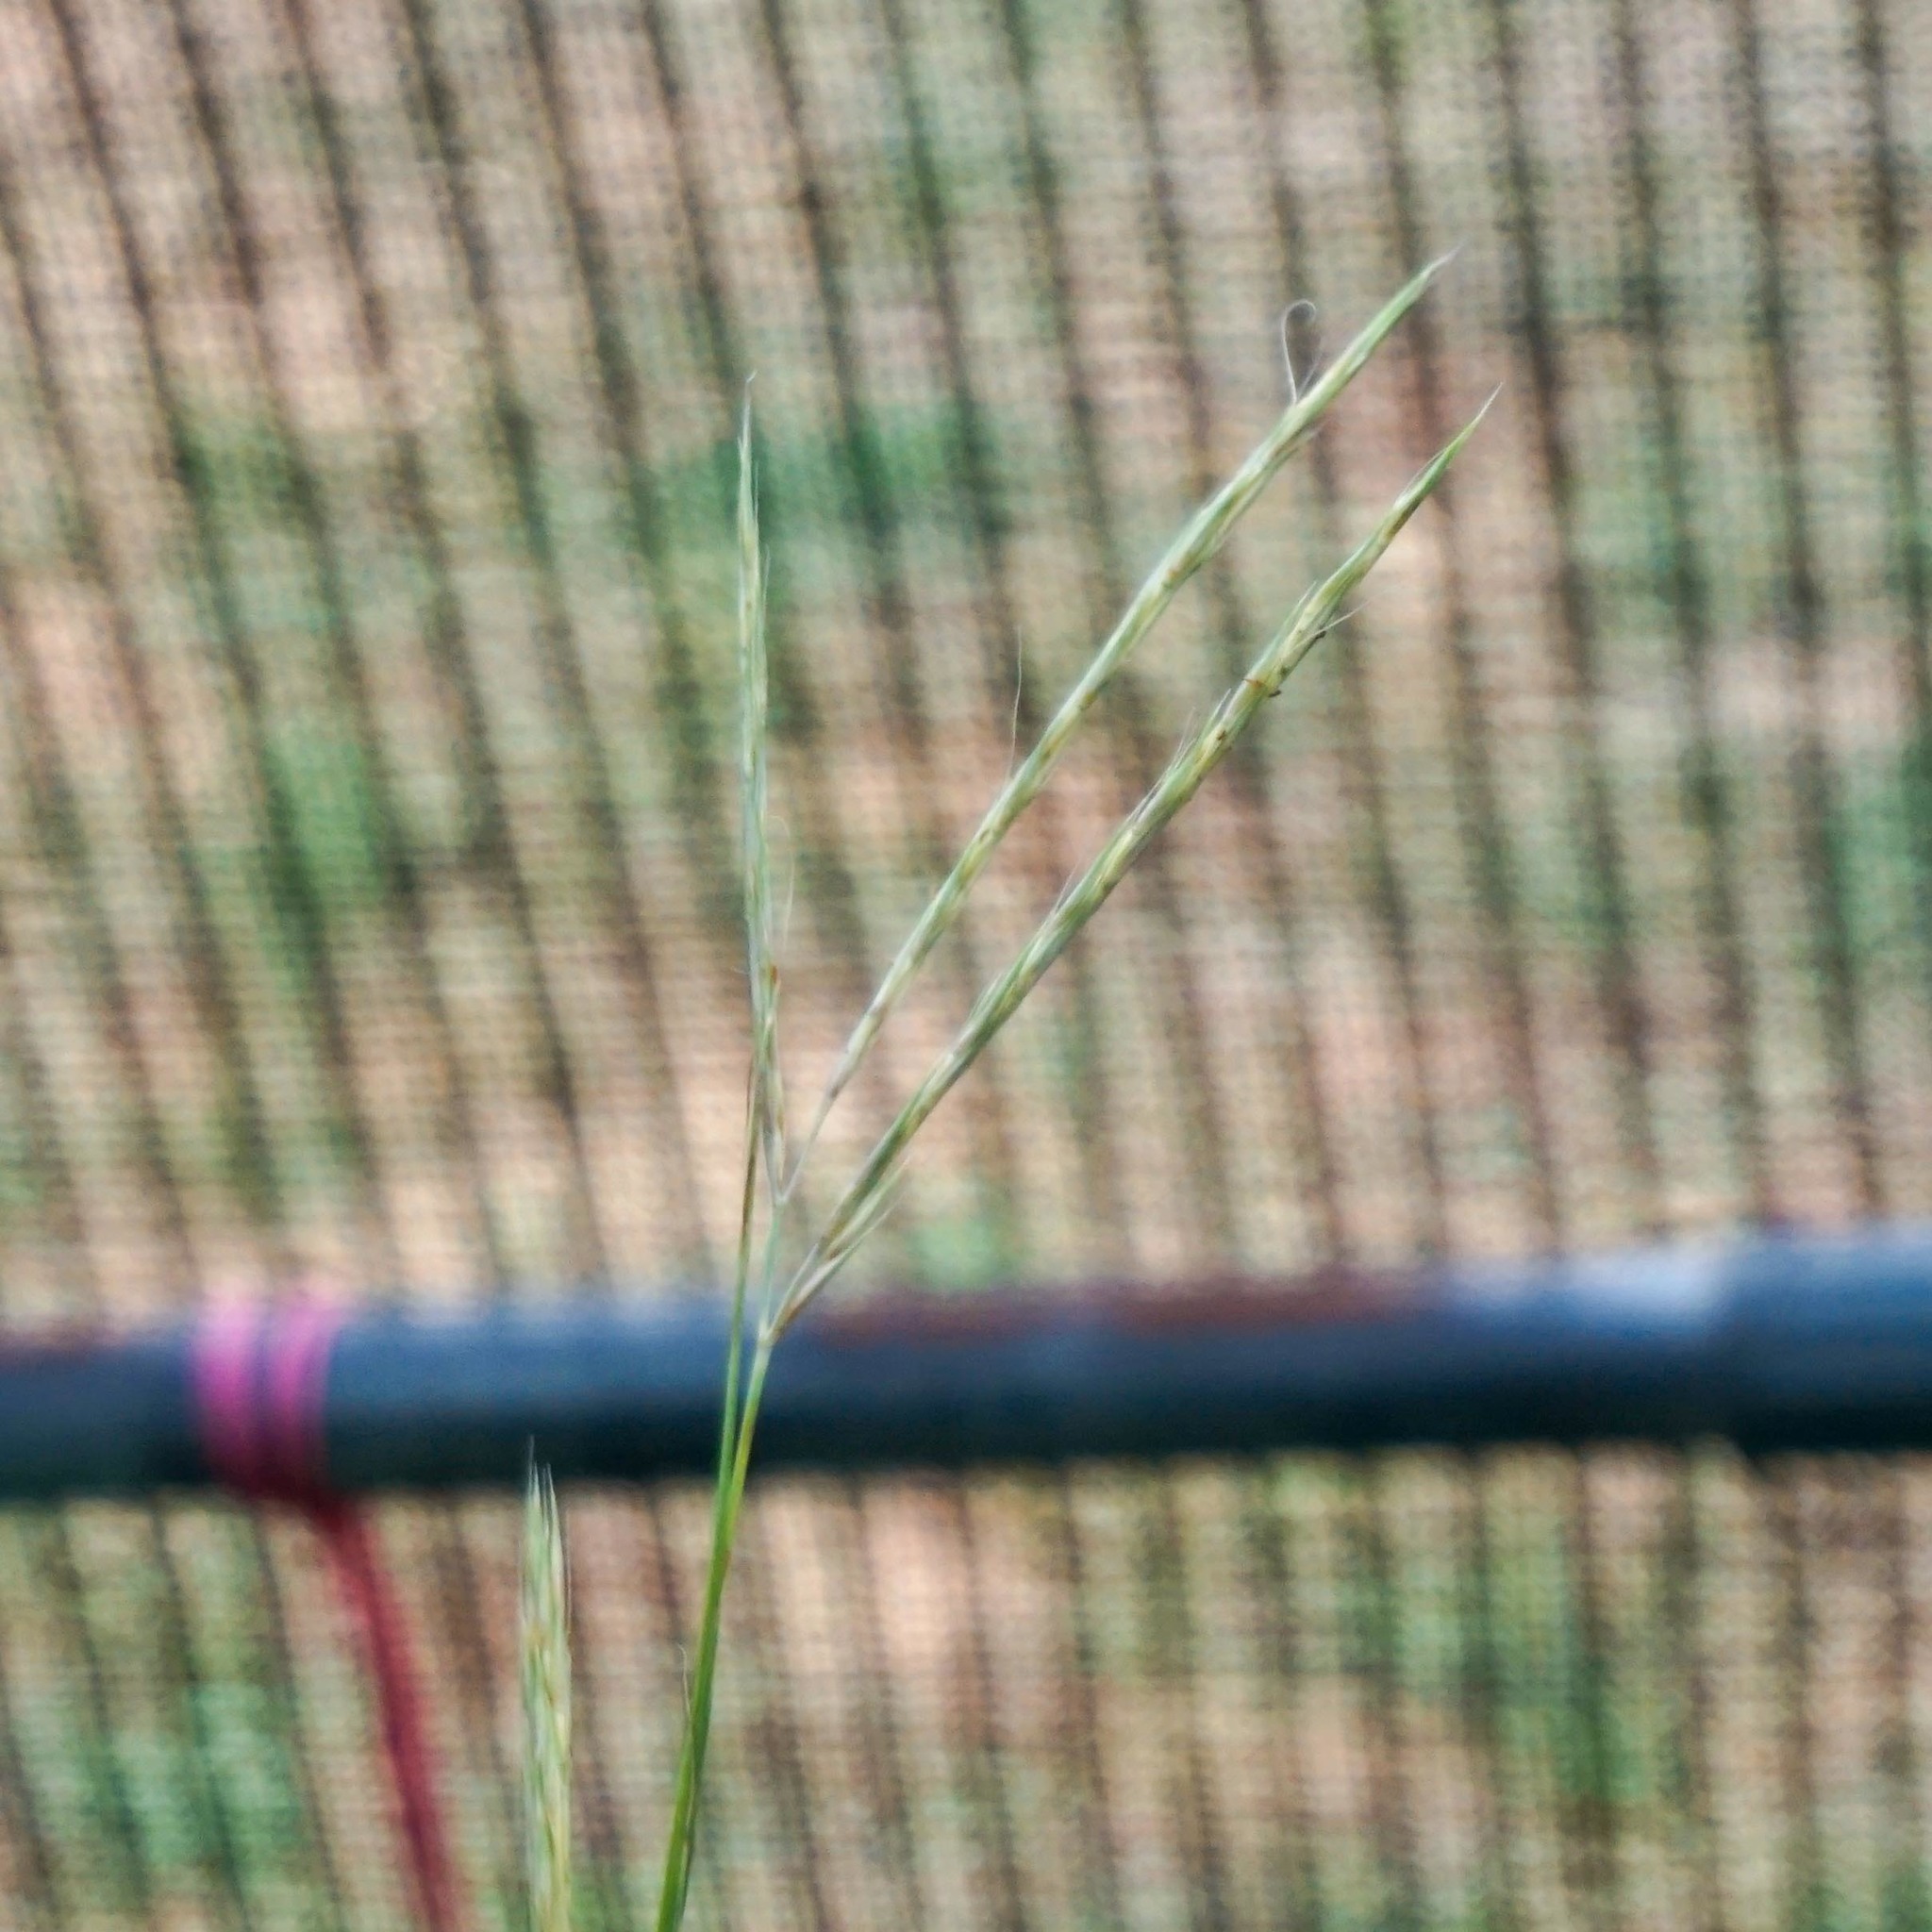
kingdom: Plantae
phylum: Tracheophyta
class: Liliopsida
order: Poales
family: Poaceae
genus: Andropogon
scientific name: Andropogon gerardi
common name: Big bluestem
